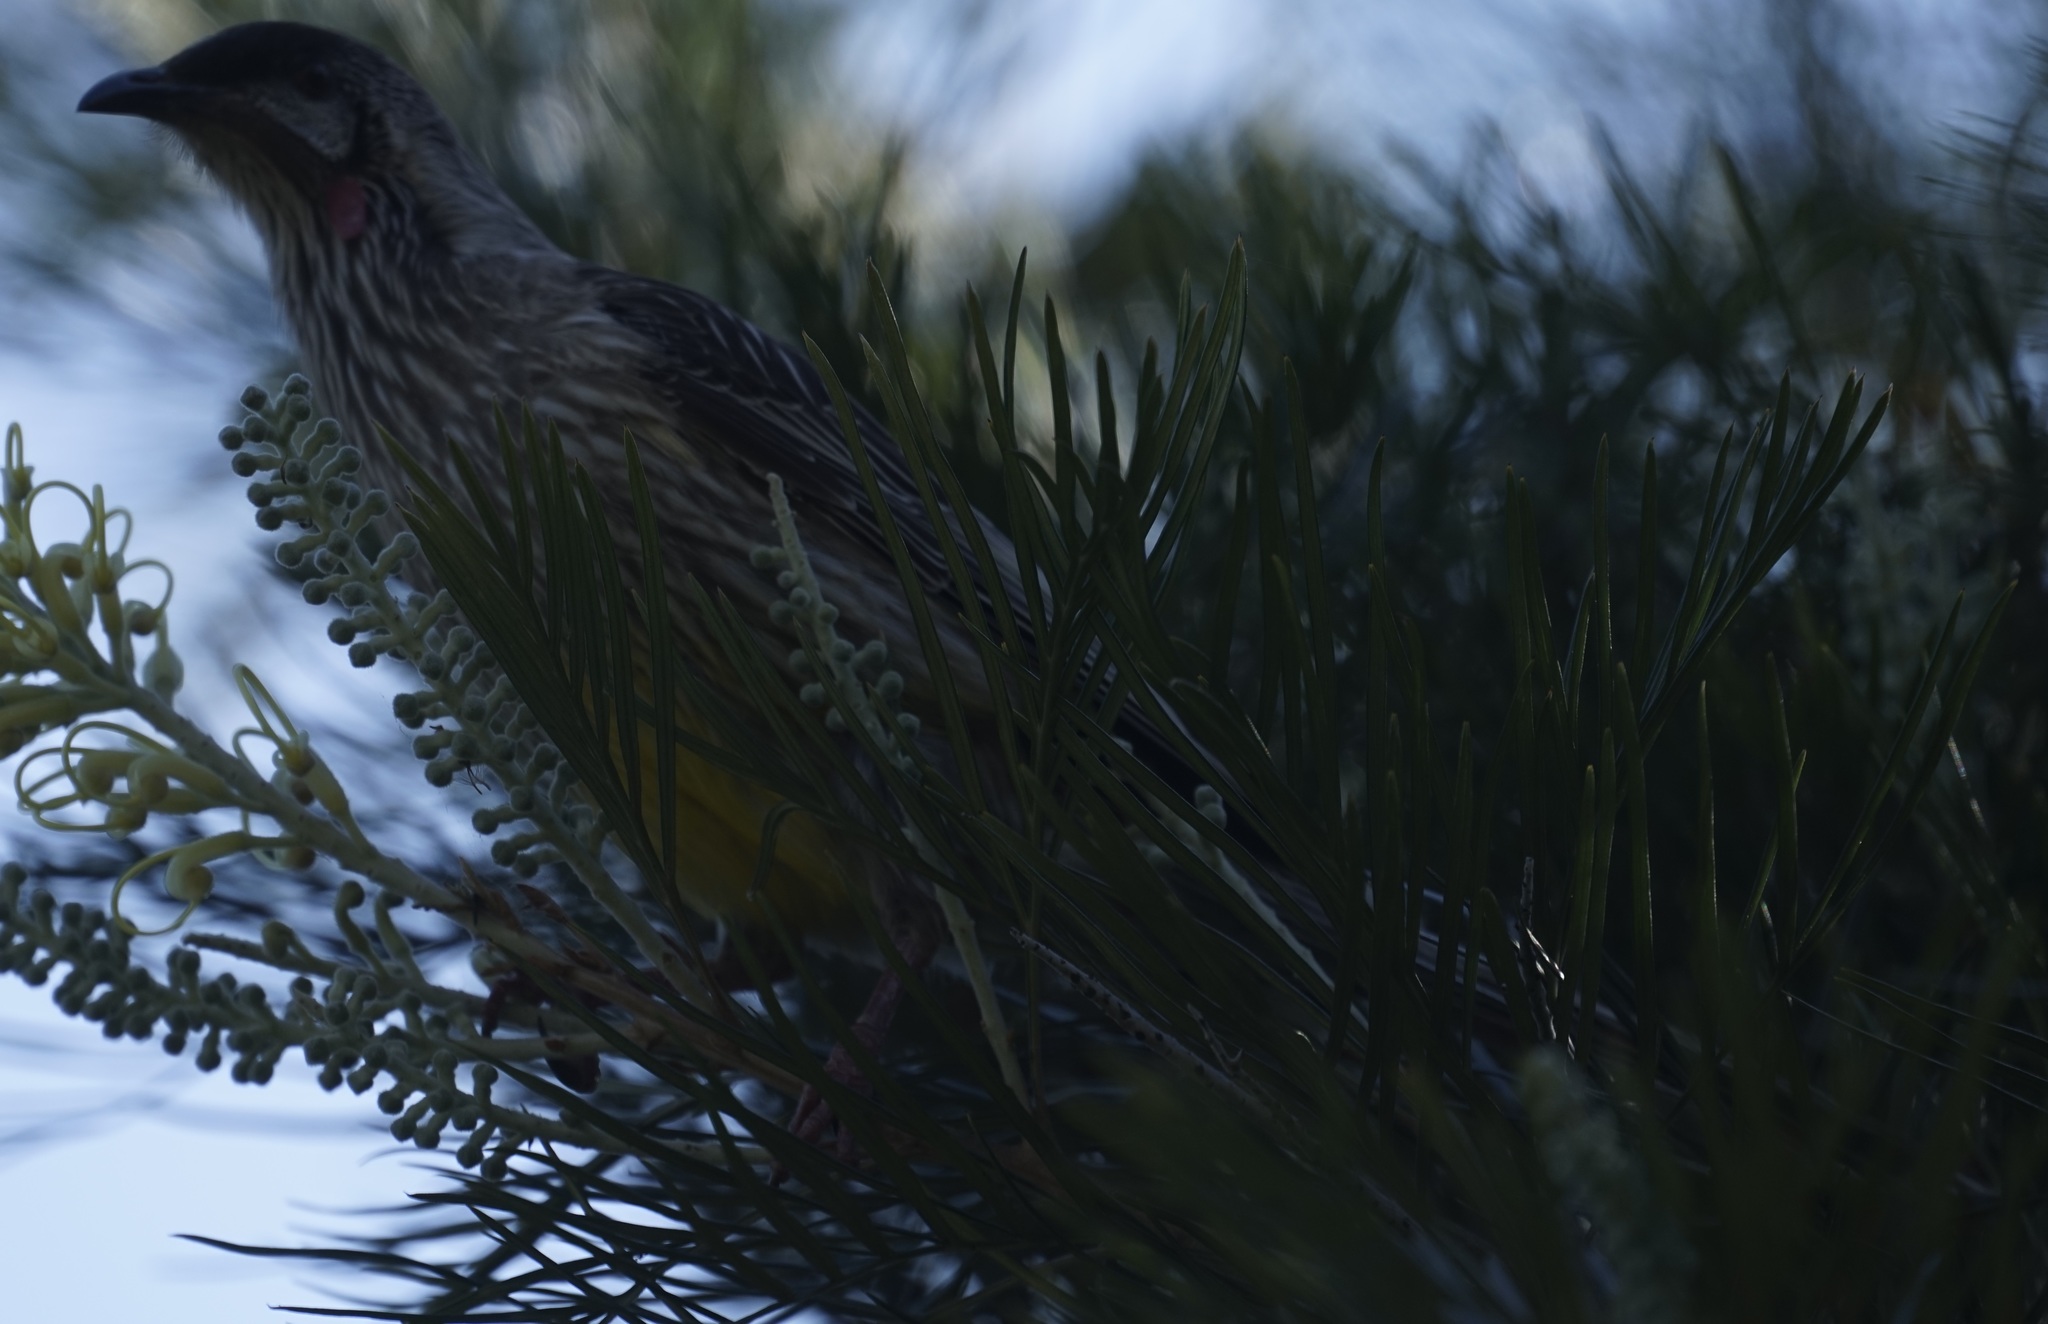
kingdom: Animalia
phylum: Chordata
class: Aves
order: Passeriformes
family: Meliphagidae
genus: Anthochaera
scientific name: Anthochaera carunculata
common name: Red wattlebird
